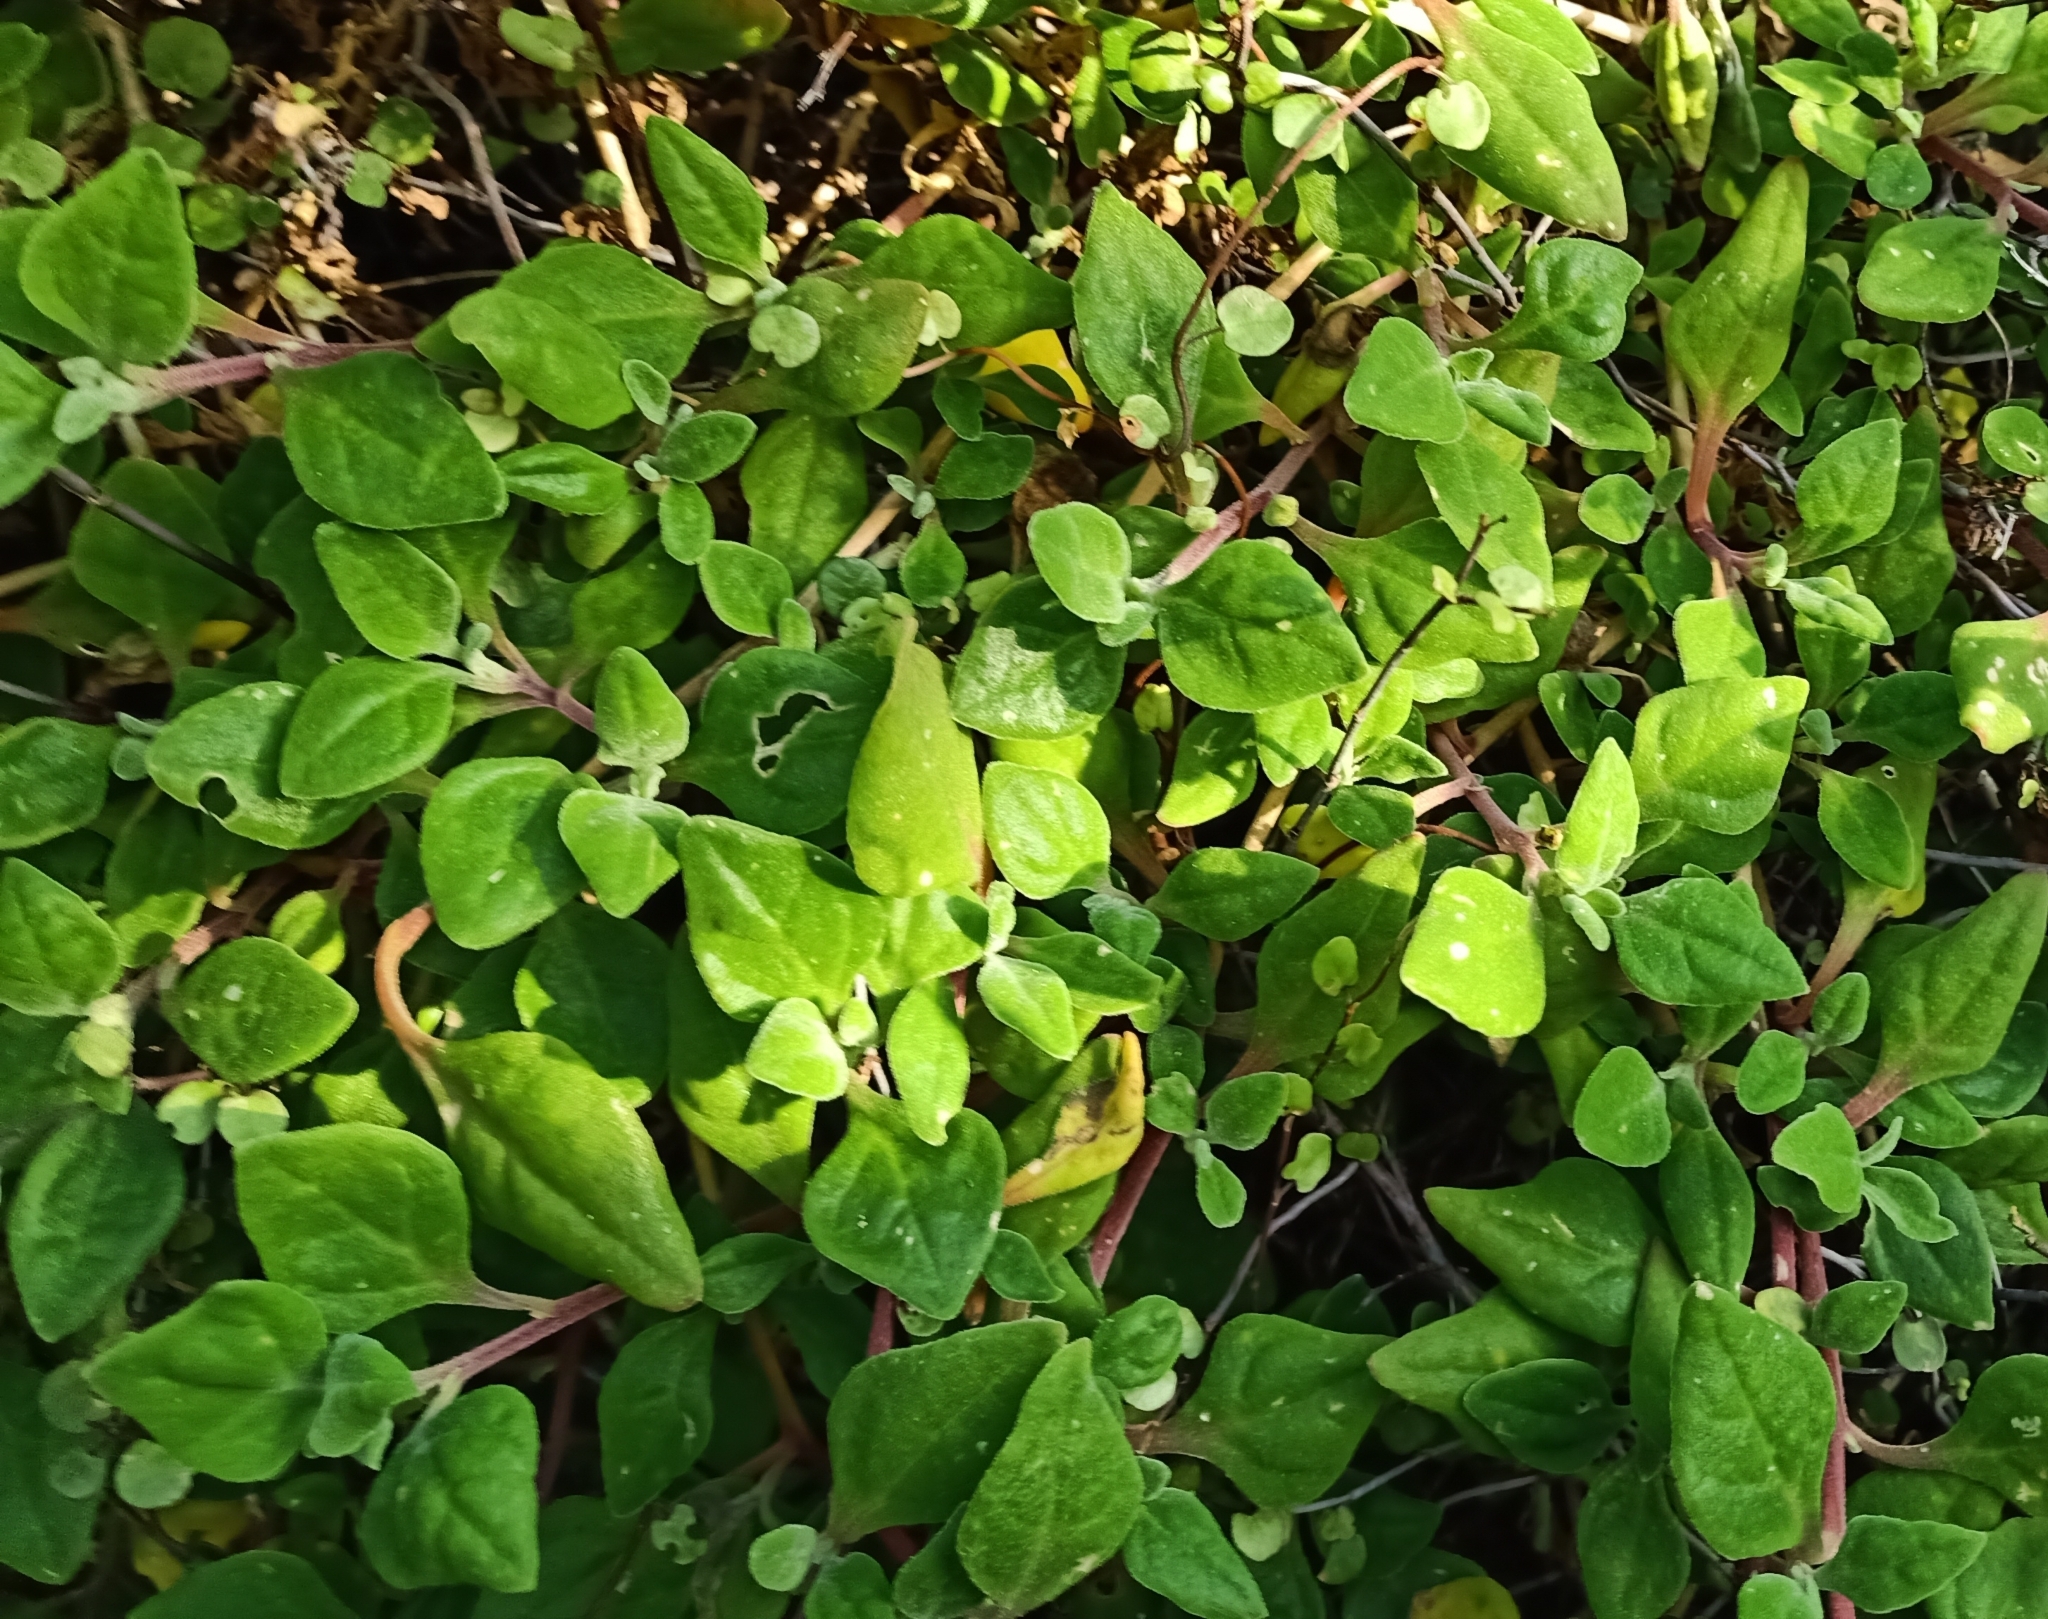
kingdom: Plantae
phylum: Tracheophyta
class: Magnoliopsida
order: Caryophyllales
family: Aizoaceae
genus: Tetragonia
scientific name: Tetragonia implexicoma
